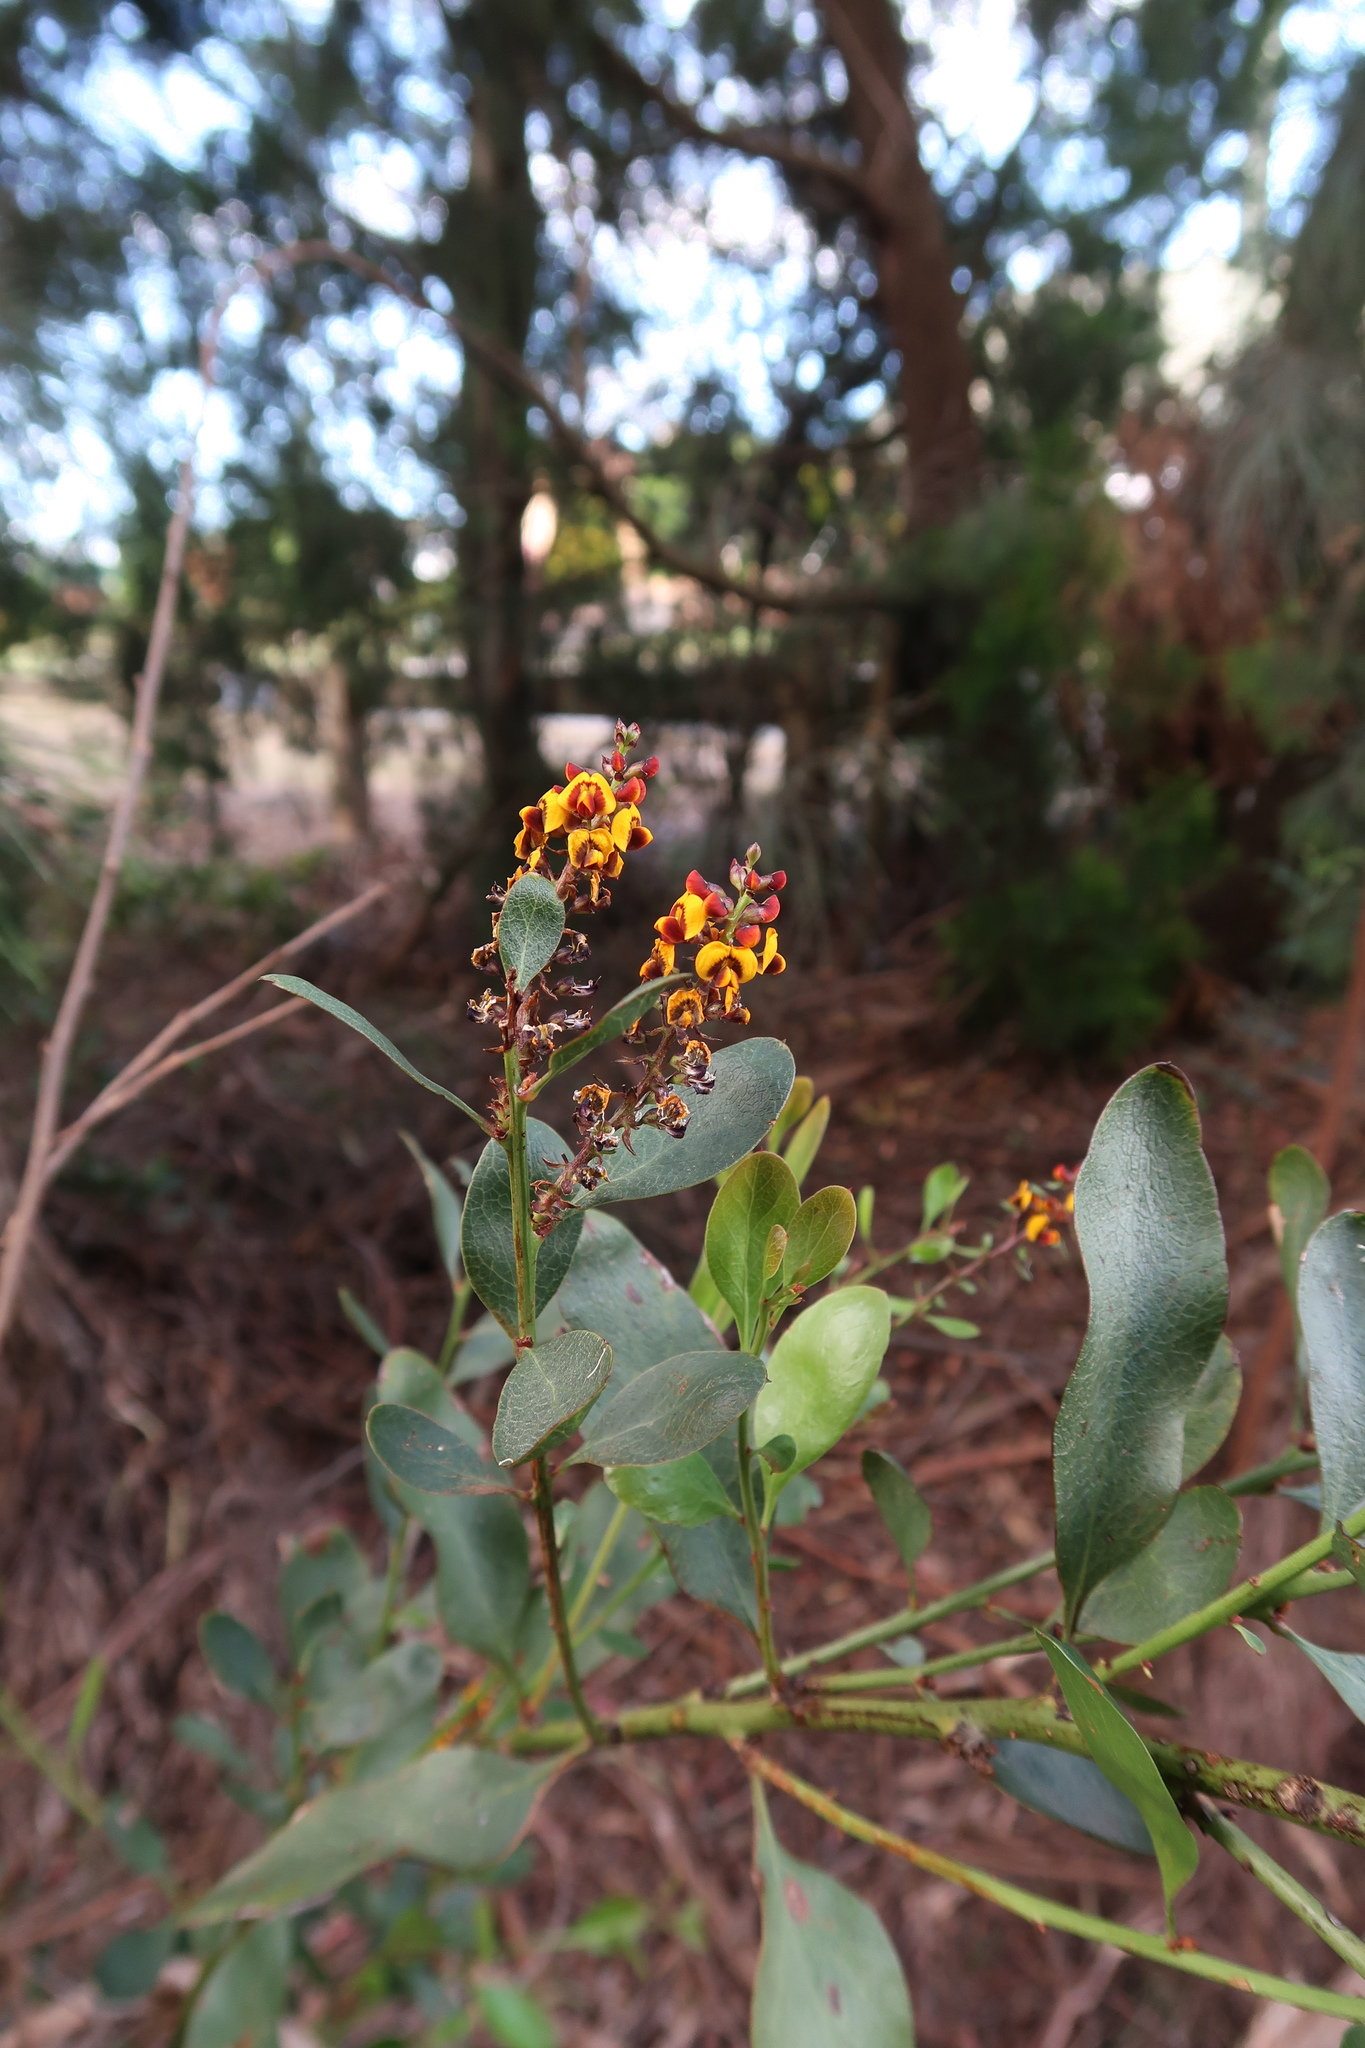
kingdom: Plantae
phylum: Tracheophyta
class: Magnoliopsida
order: Fabales
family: Fabaceae
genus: Daviesia
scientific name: Daviesia latifolia
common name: Hop bitter-pea
